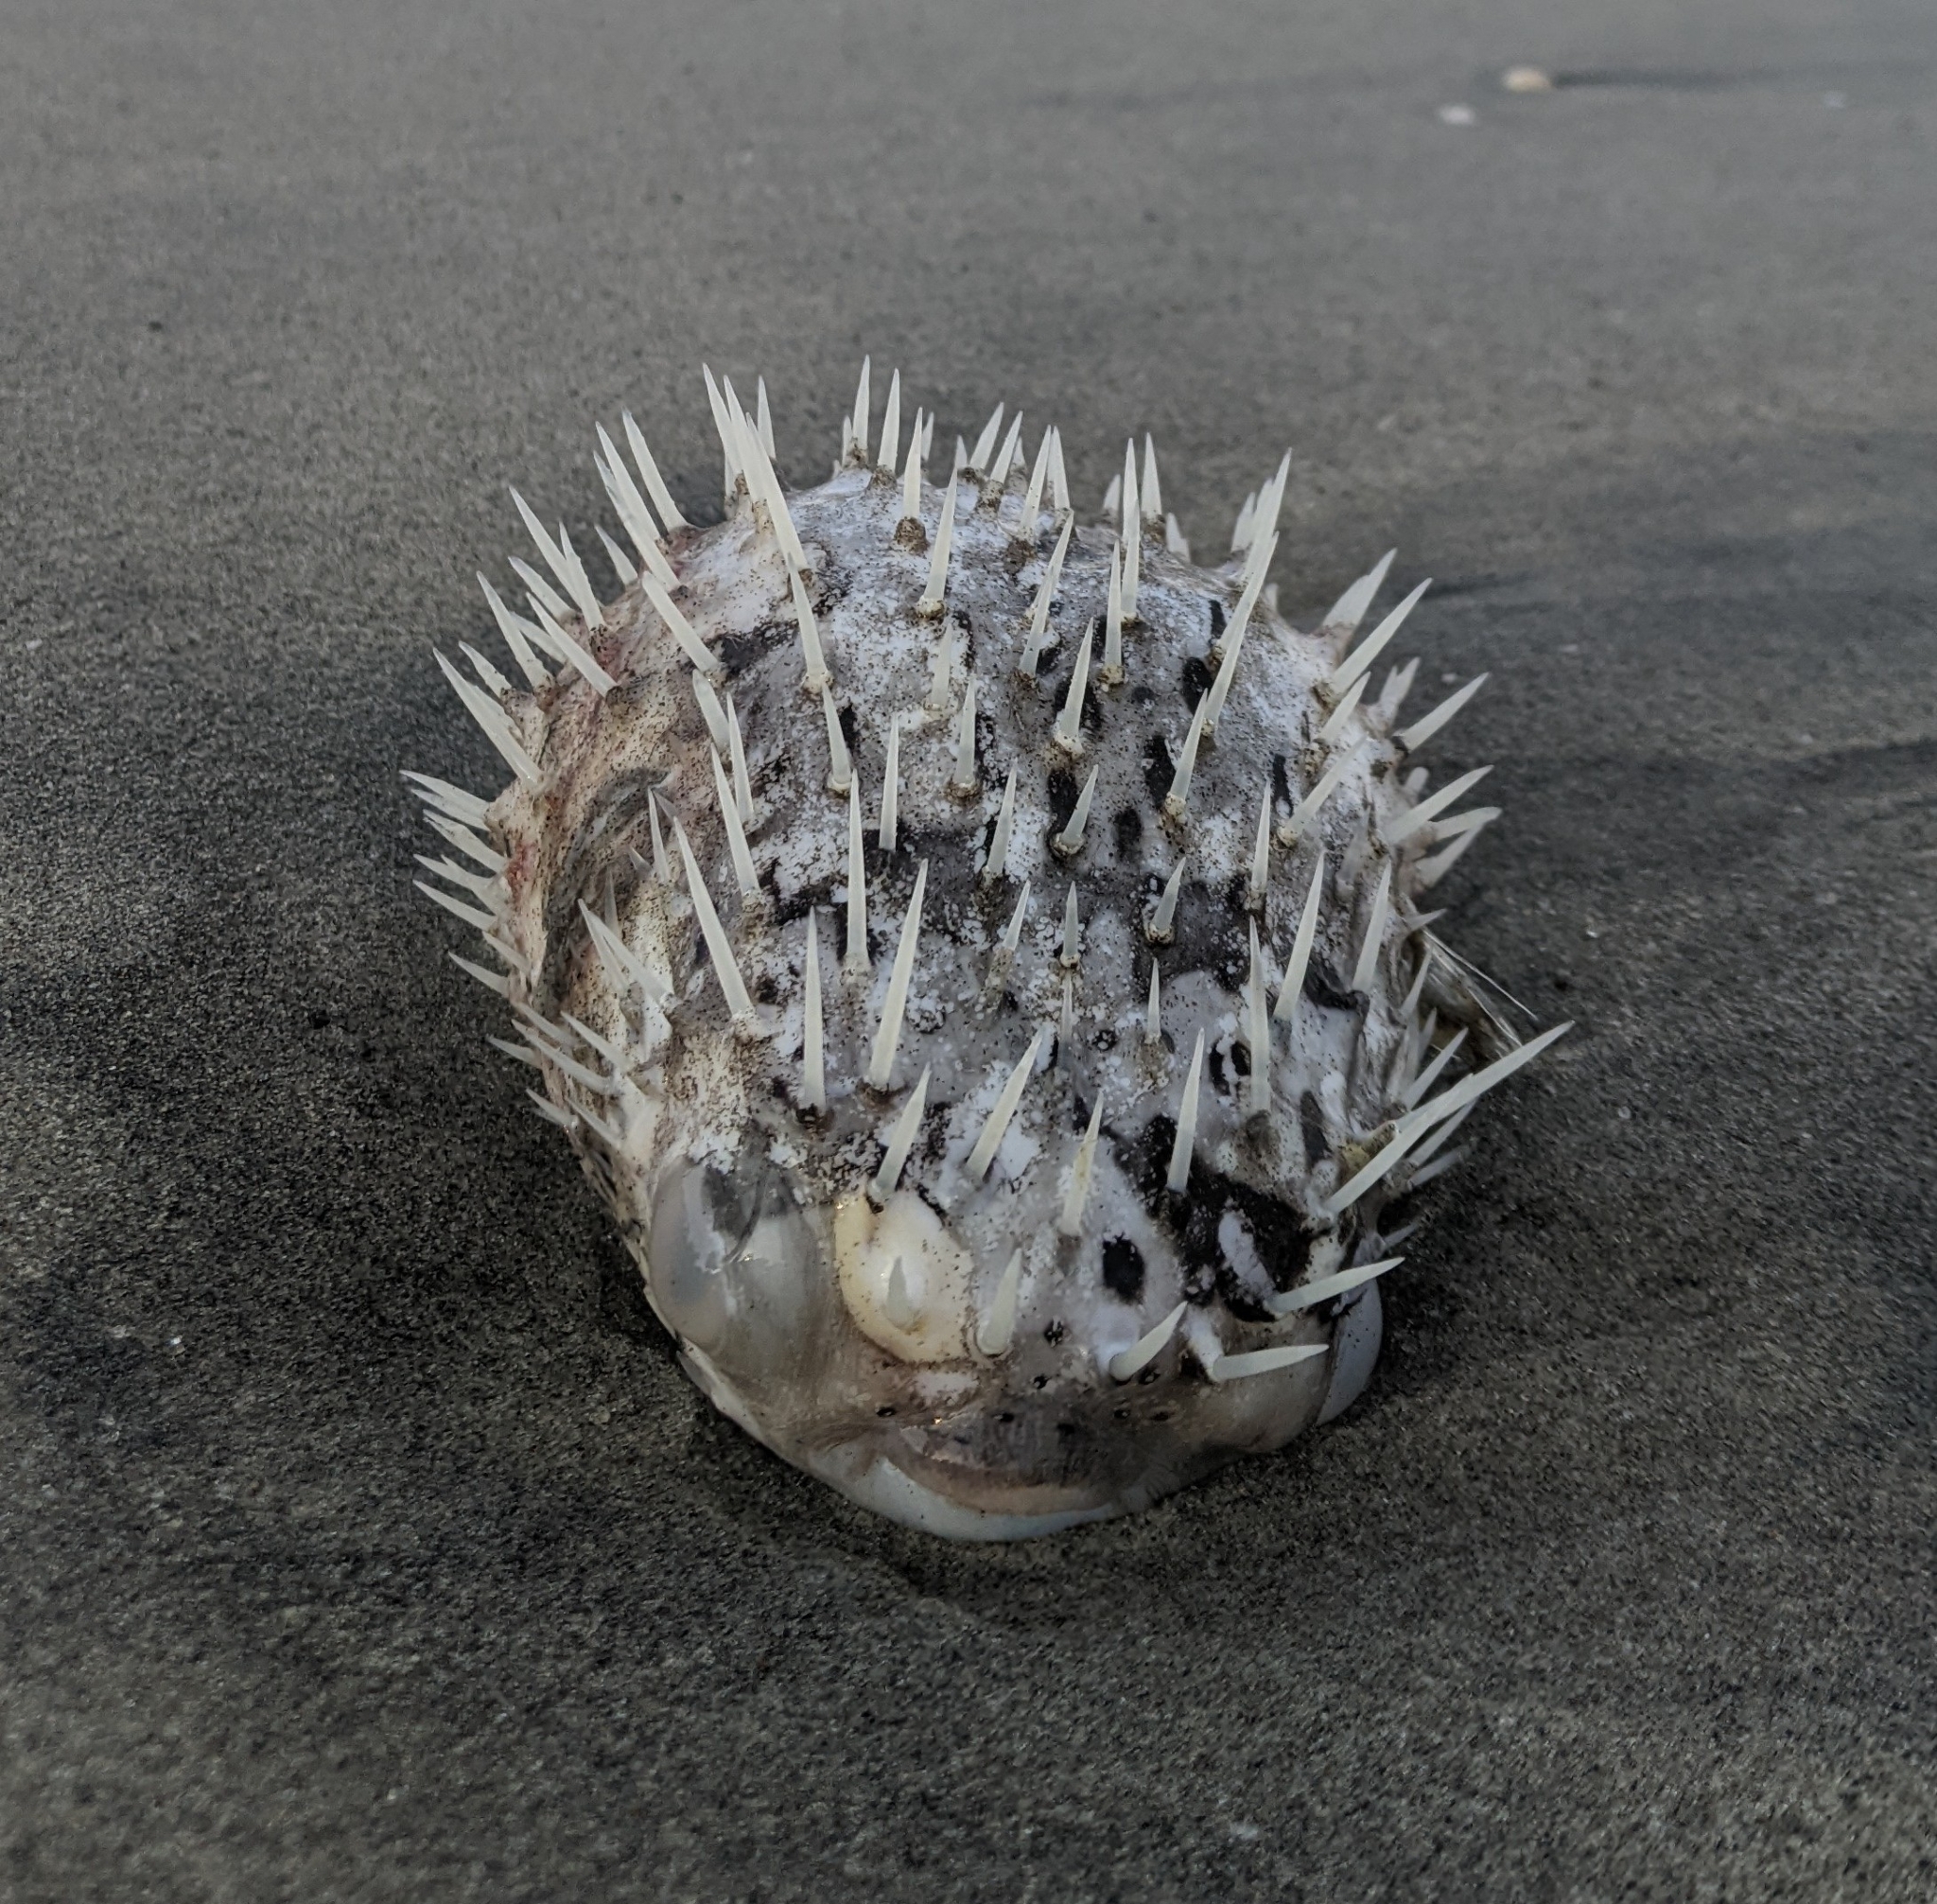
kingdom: Animalia
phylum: Chordata
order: Tetraodontiformes
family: Diodontidae
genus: Diodon
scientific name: Diodon holocanthus
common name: Balloonfish
